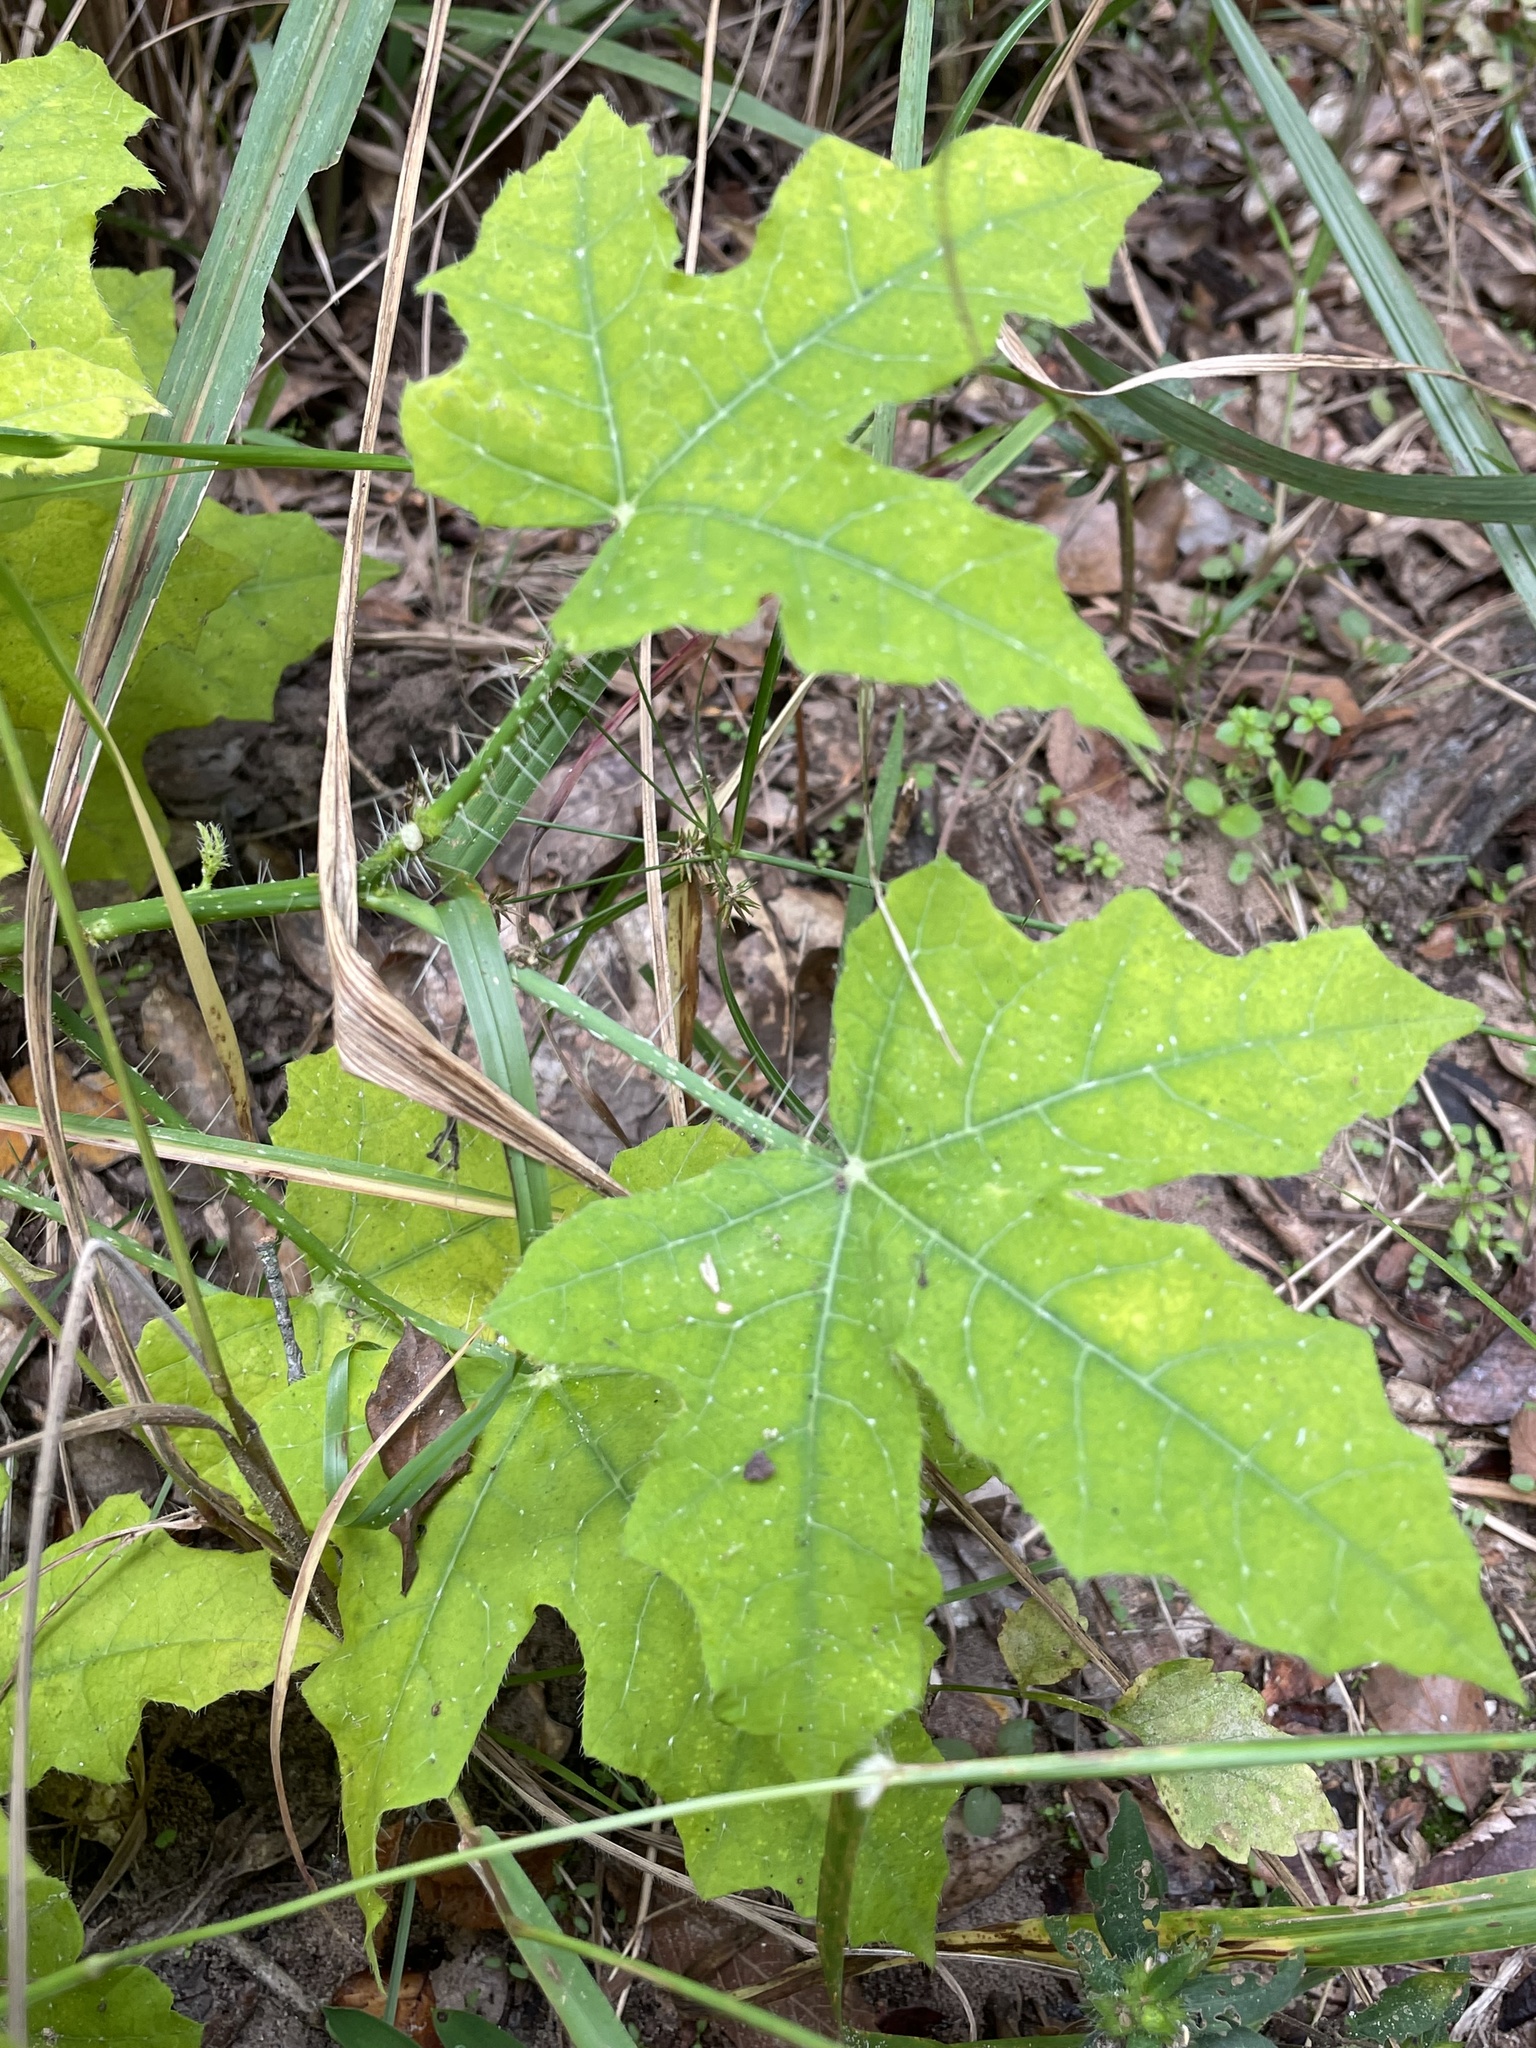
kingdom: Plantae
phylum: Tracheophyta
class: Magnoliopsida
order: Malpighiales
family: Euphorbiaceae
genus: Cnidoscolus
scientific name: Cnidoscolus texanus
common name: Texas bull-nettle
